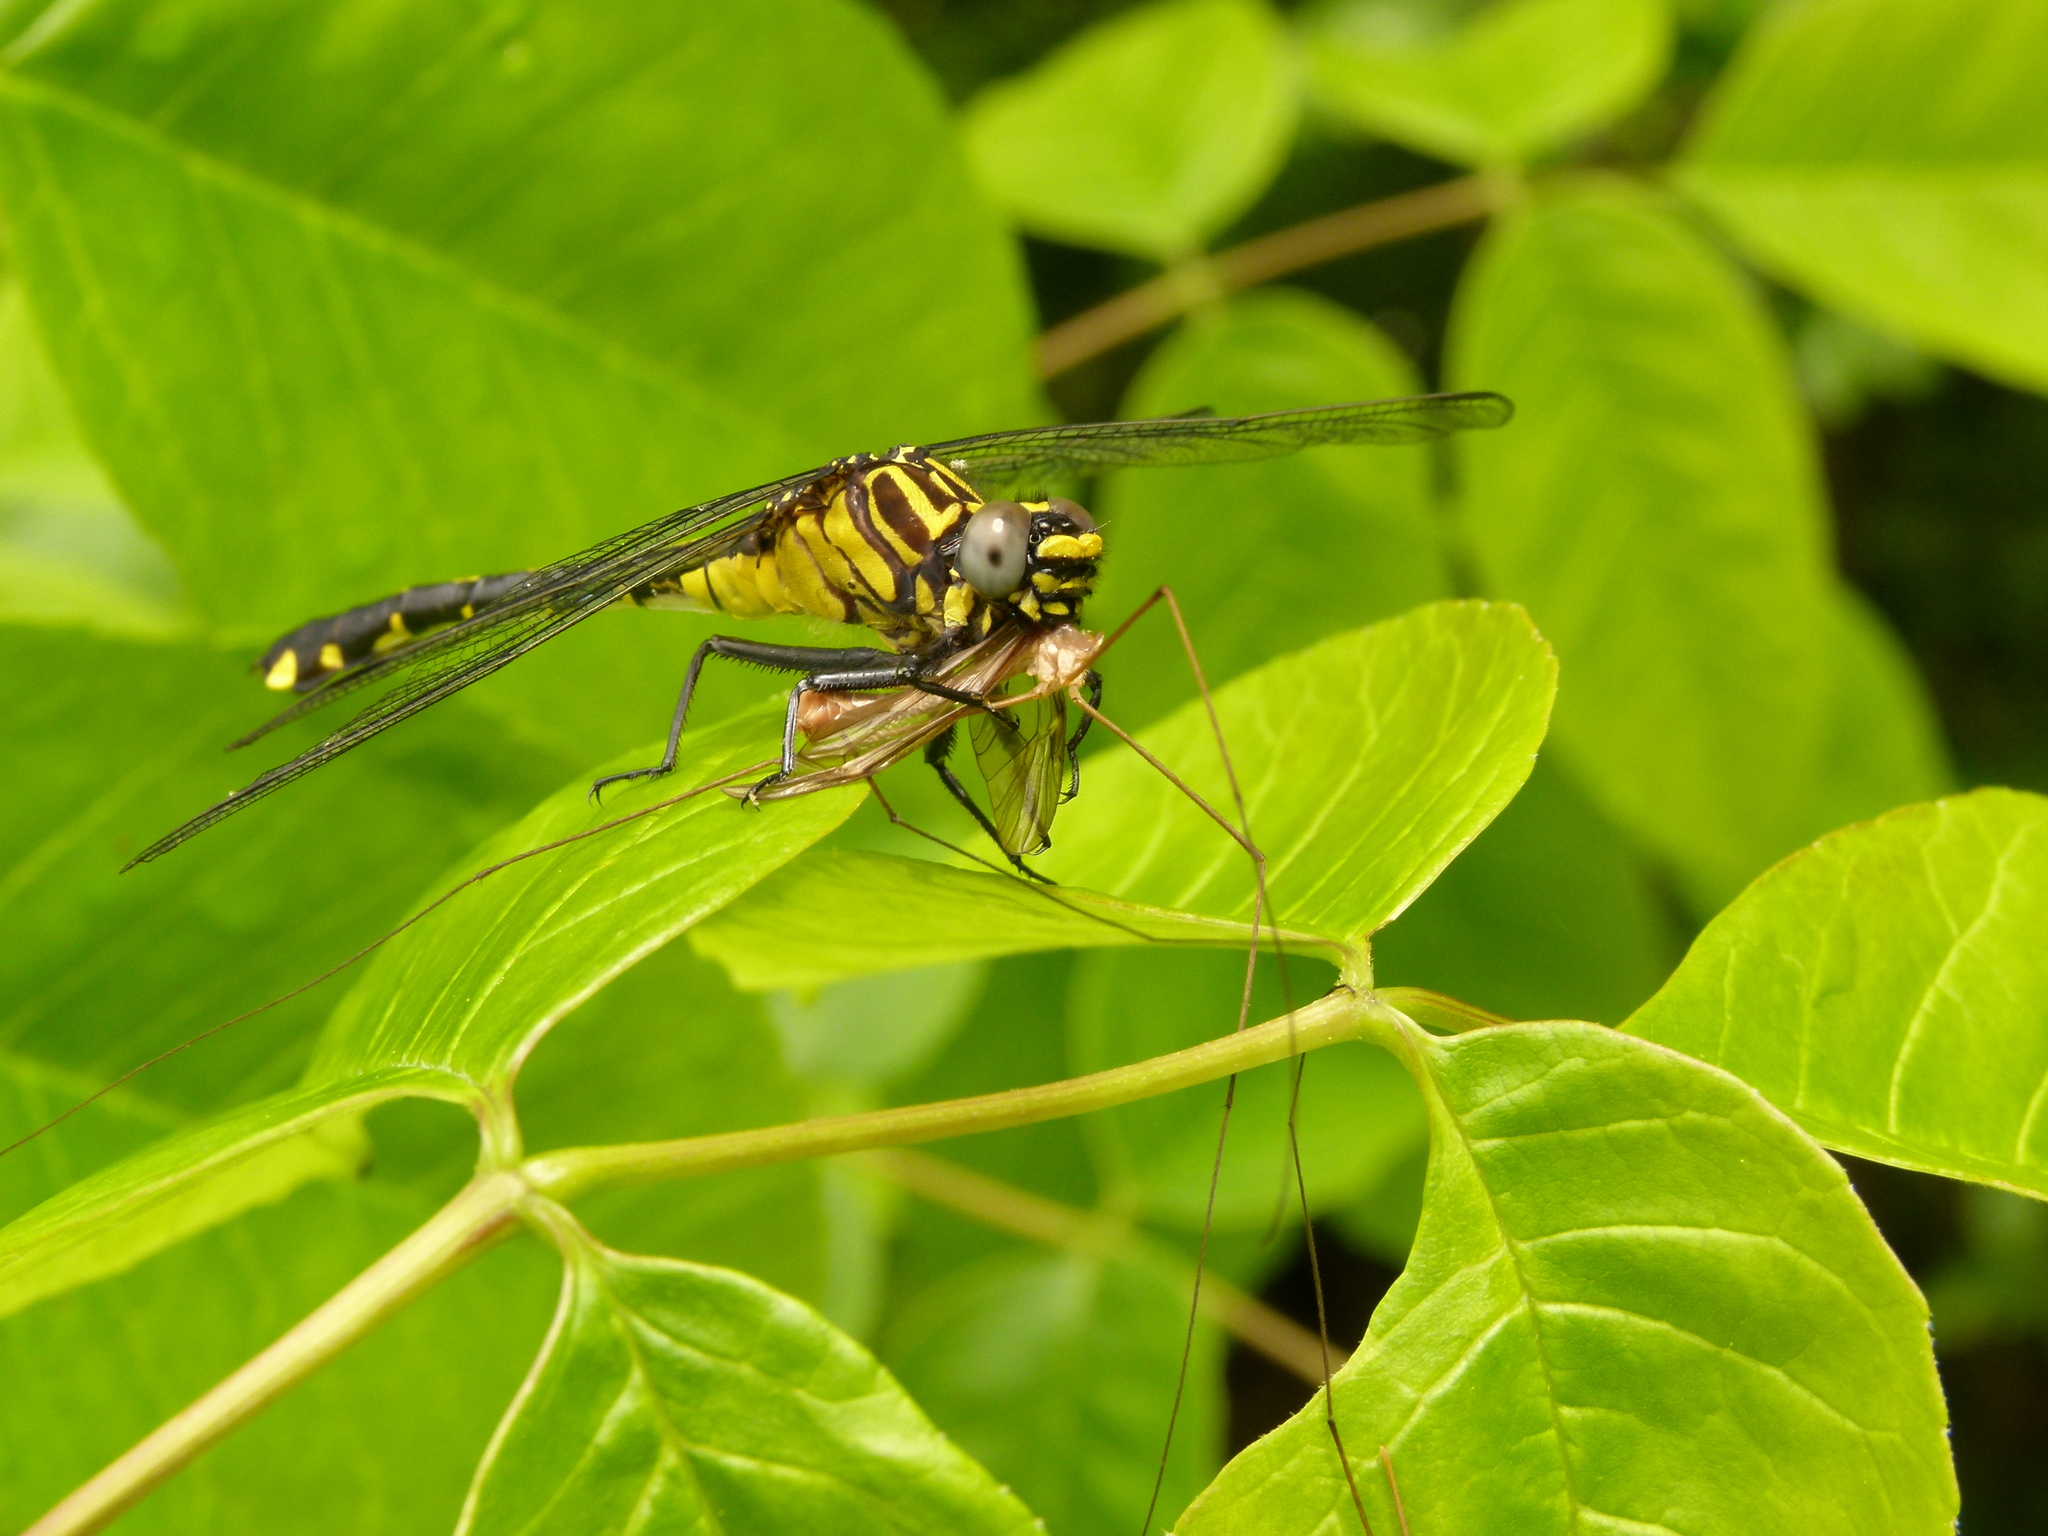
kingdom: Animalia
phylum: Arthropoda
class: Insecta
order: Odonata
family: Gomphidae
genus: Gomphurus
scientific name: Gomphurus vastus
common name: Cobra clubtail
